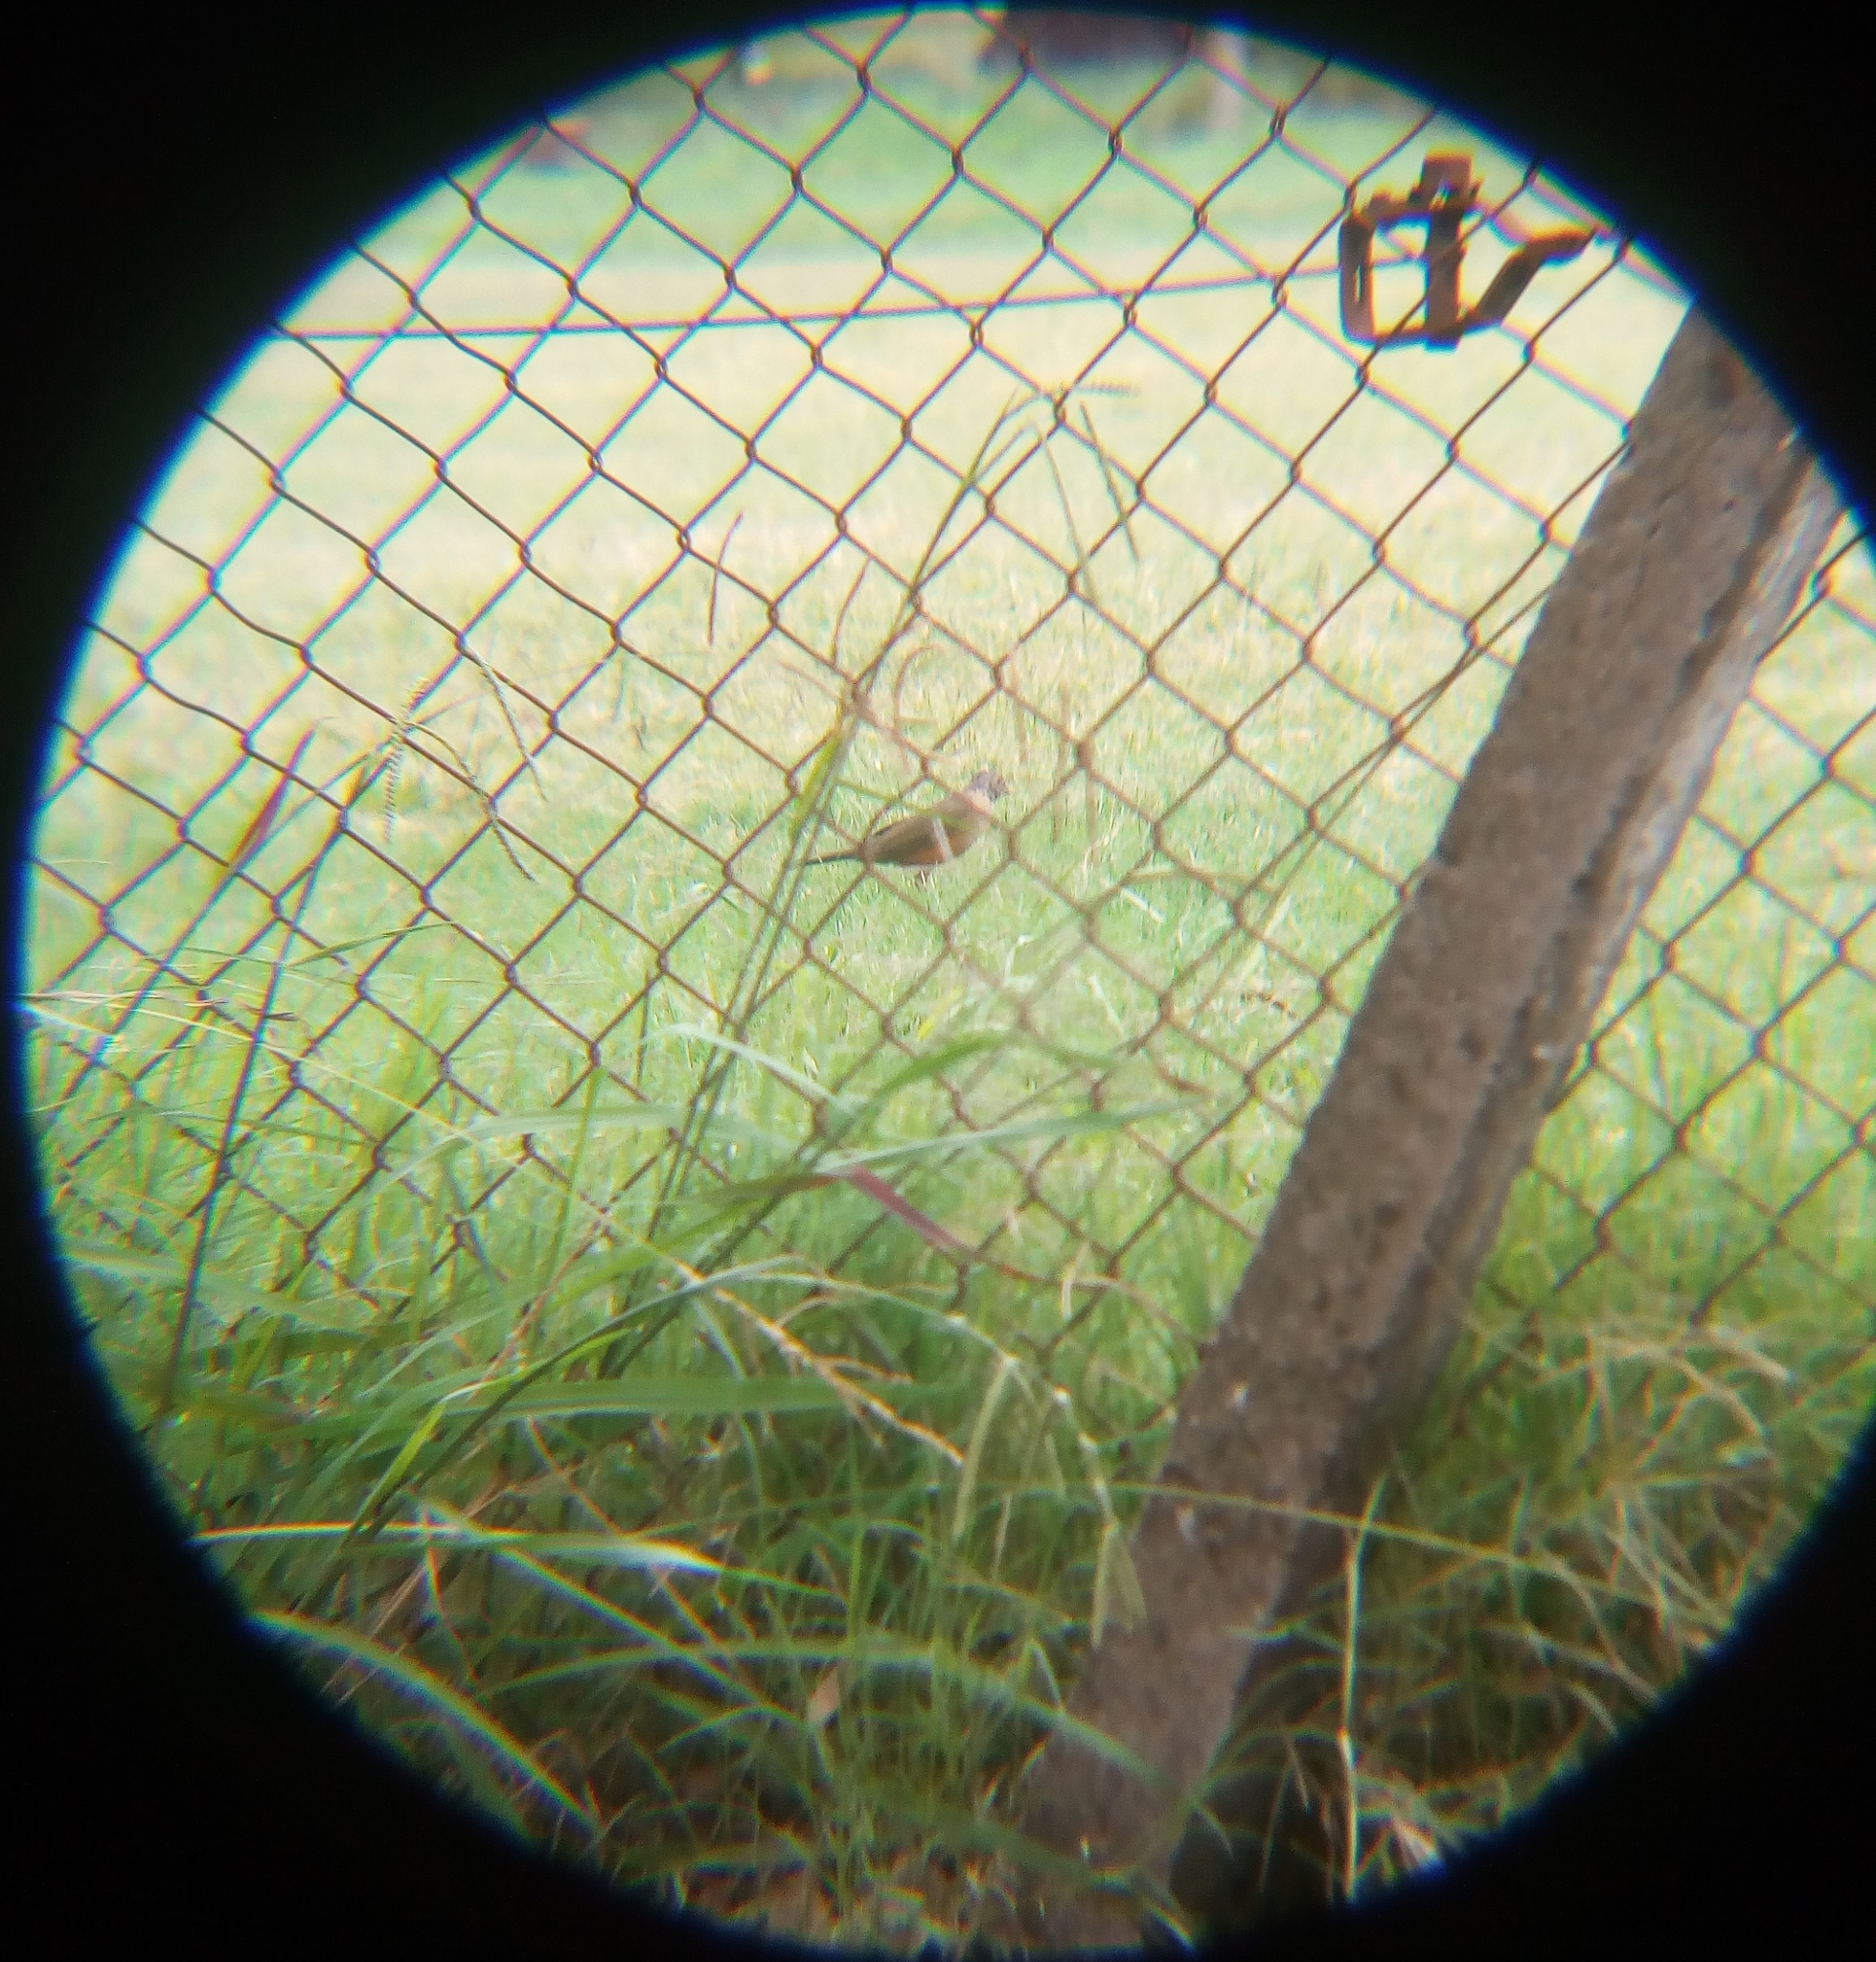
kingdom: Animalia
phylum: Chordata
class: Aves
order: Passeriformes
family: Turdidae
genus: Turdus
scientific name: Turdus rufiventris
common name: Rufous-bellied thrush
